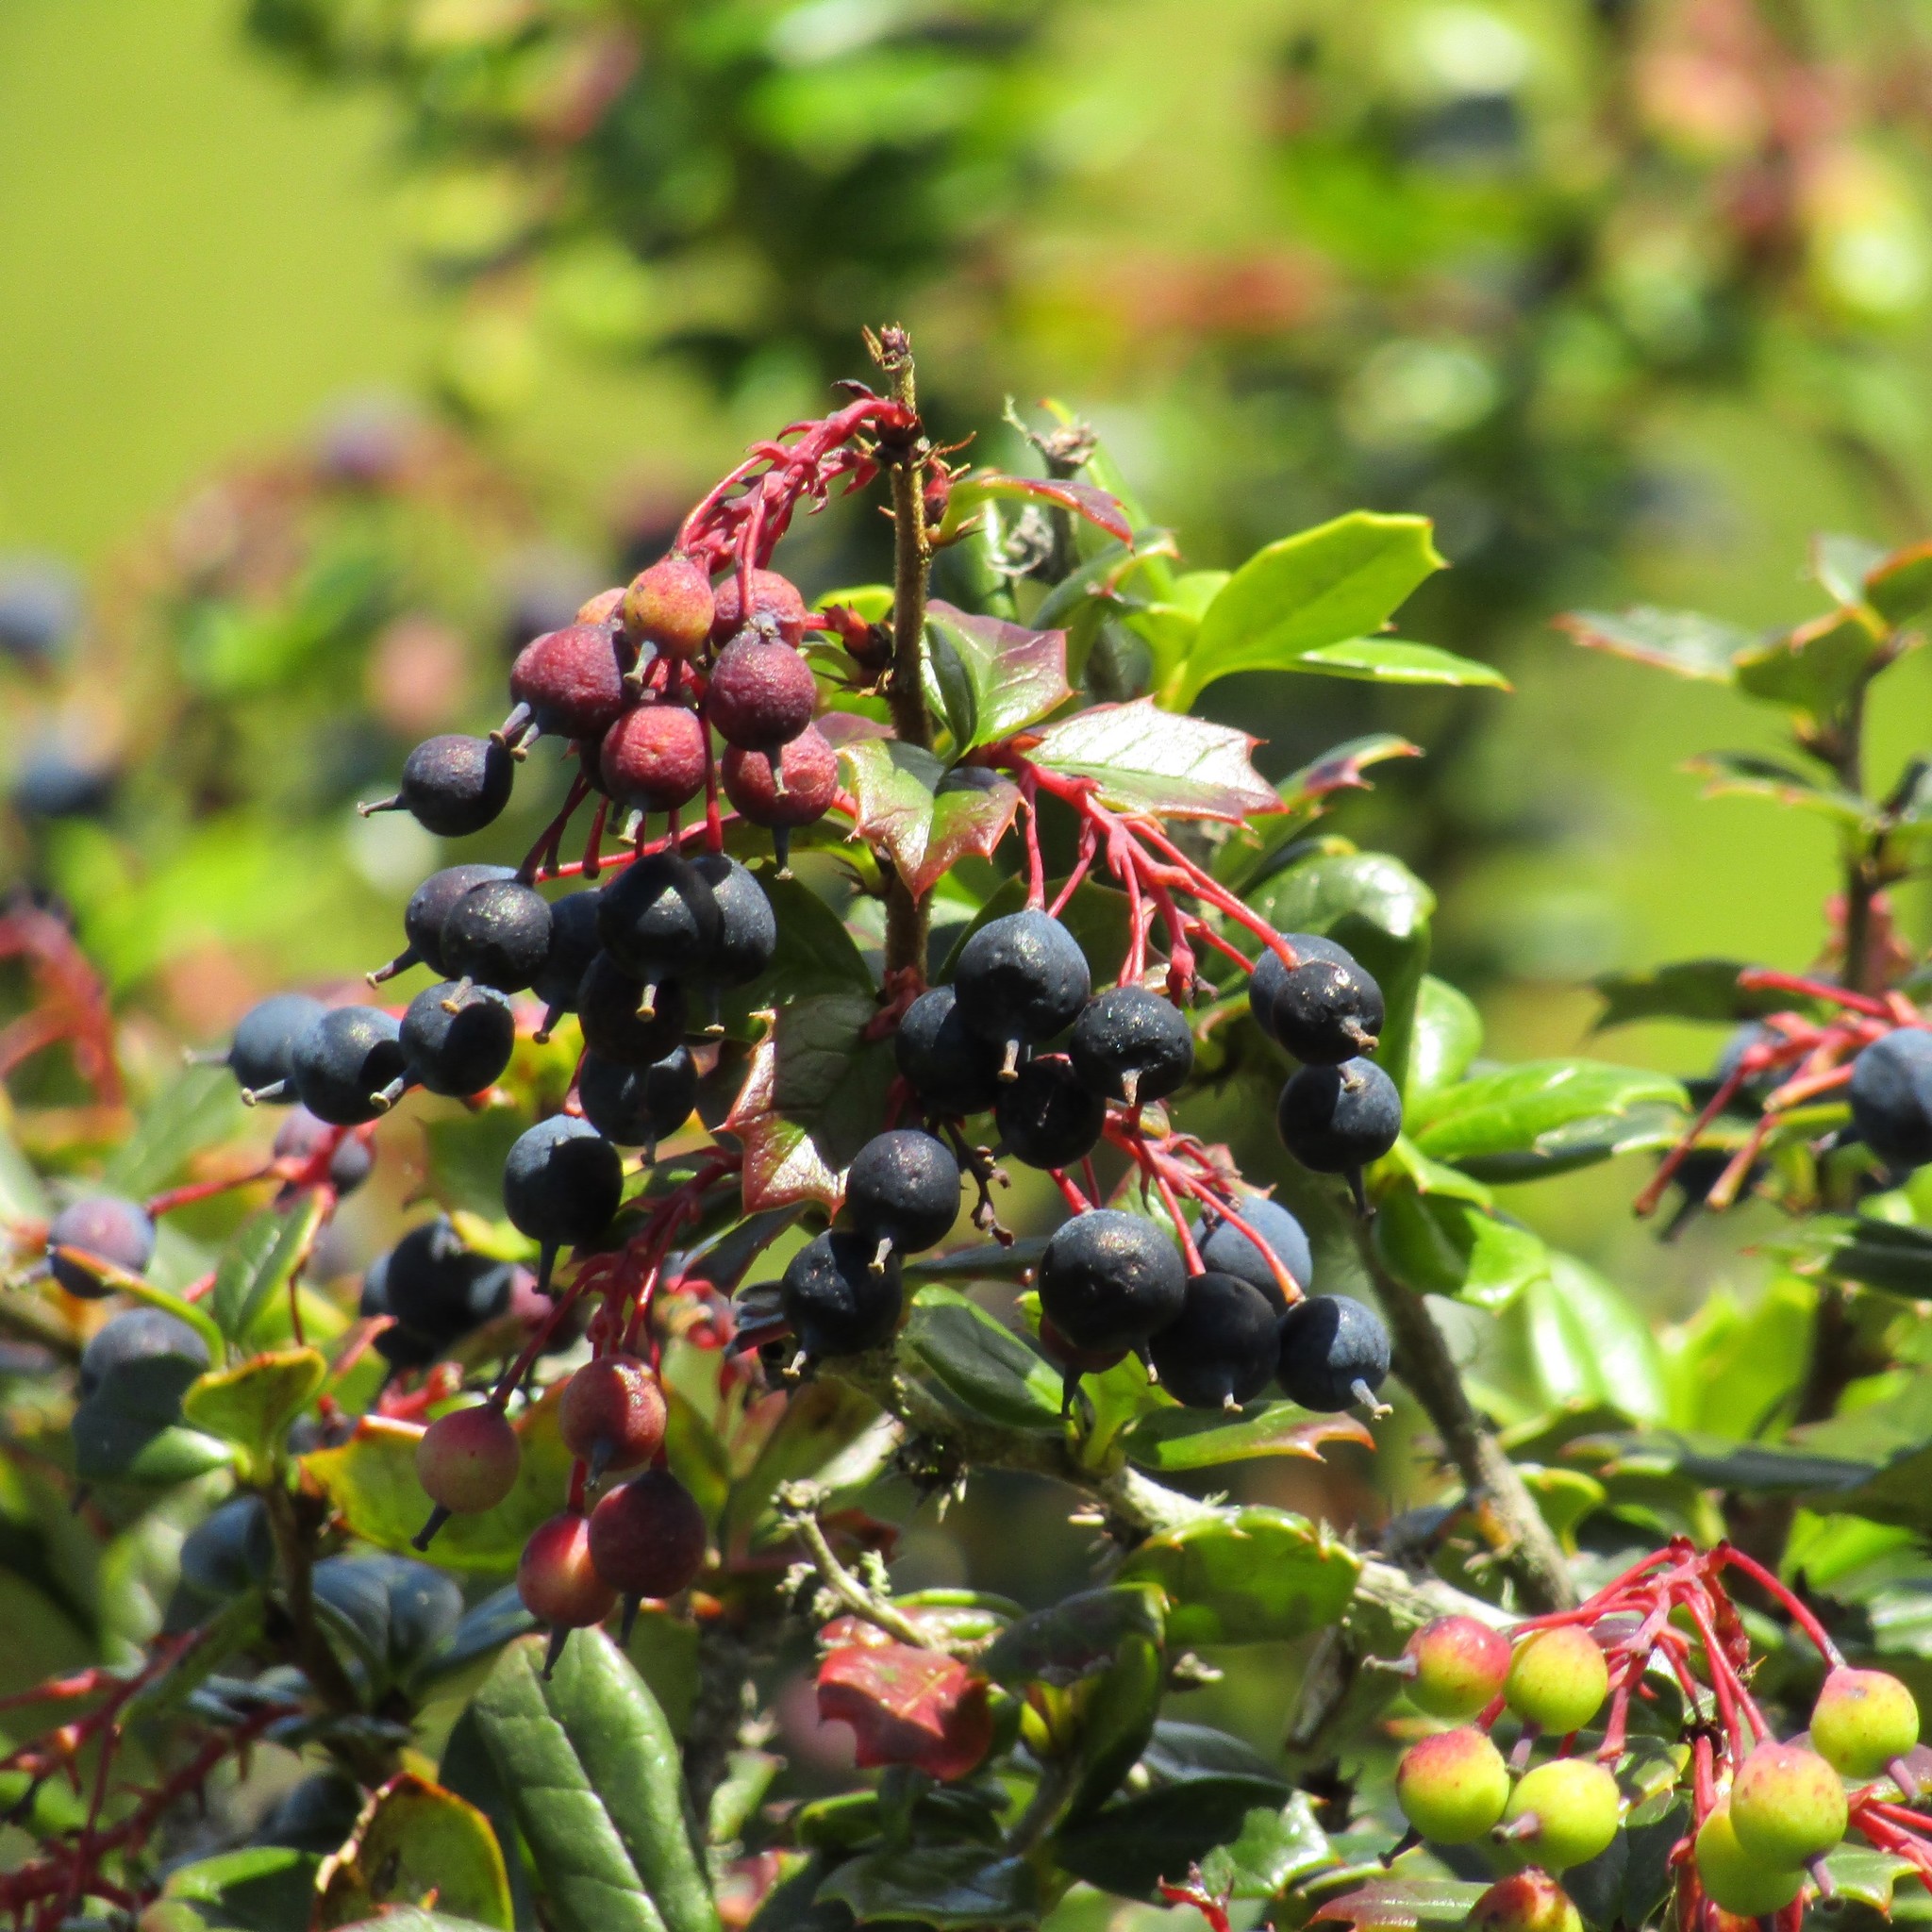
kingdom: Plantae
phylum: Tracheophyta
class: Magnoliopsida
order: Ranunculales
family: Berberidaceae
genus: Berberis
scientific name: Berberis darwinii
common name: Darwin's barberry
